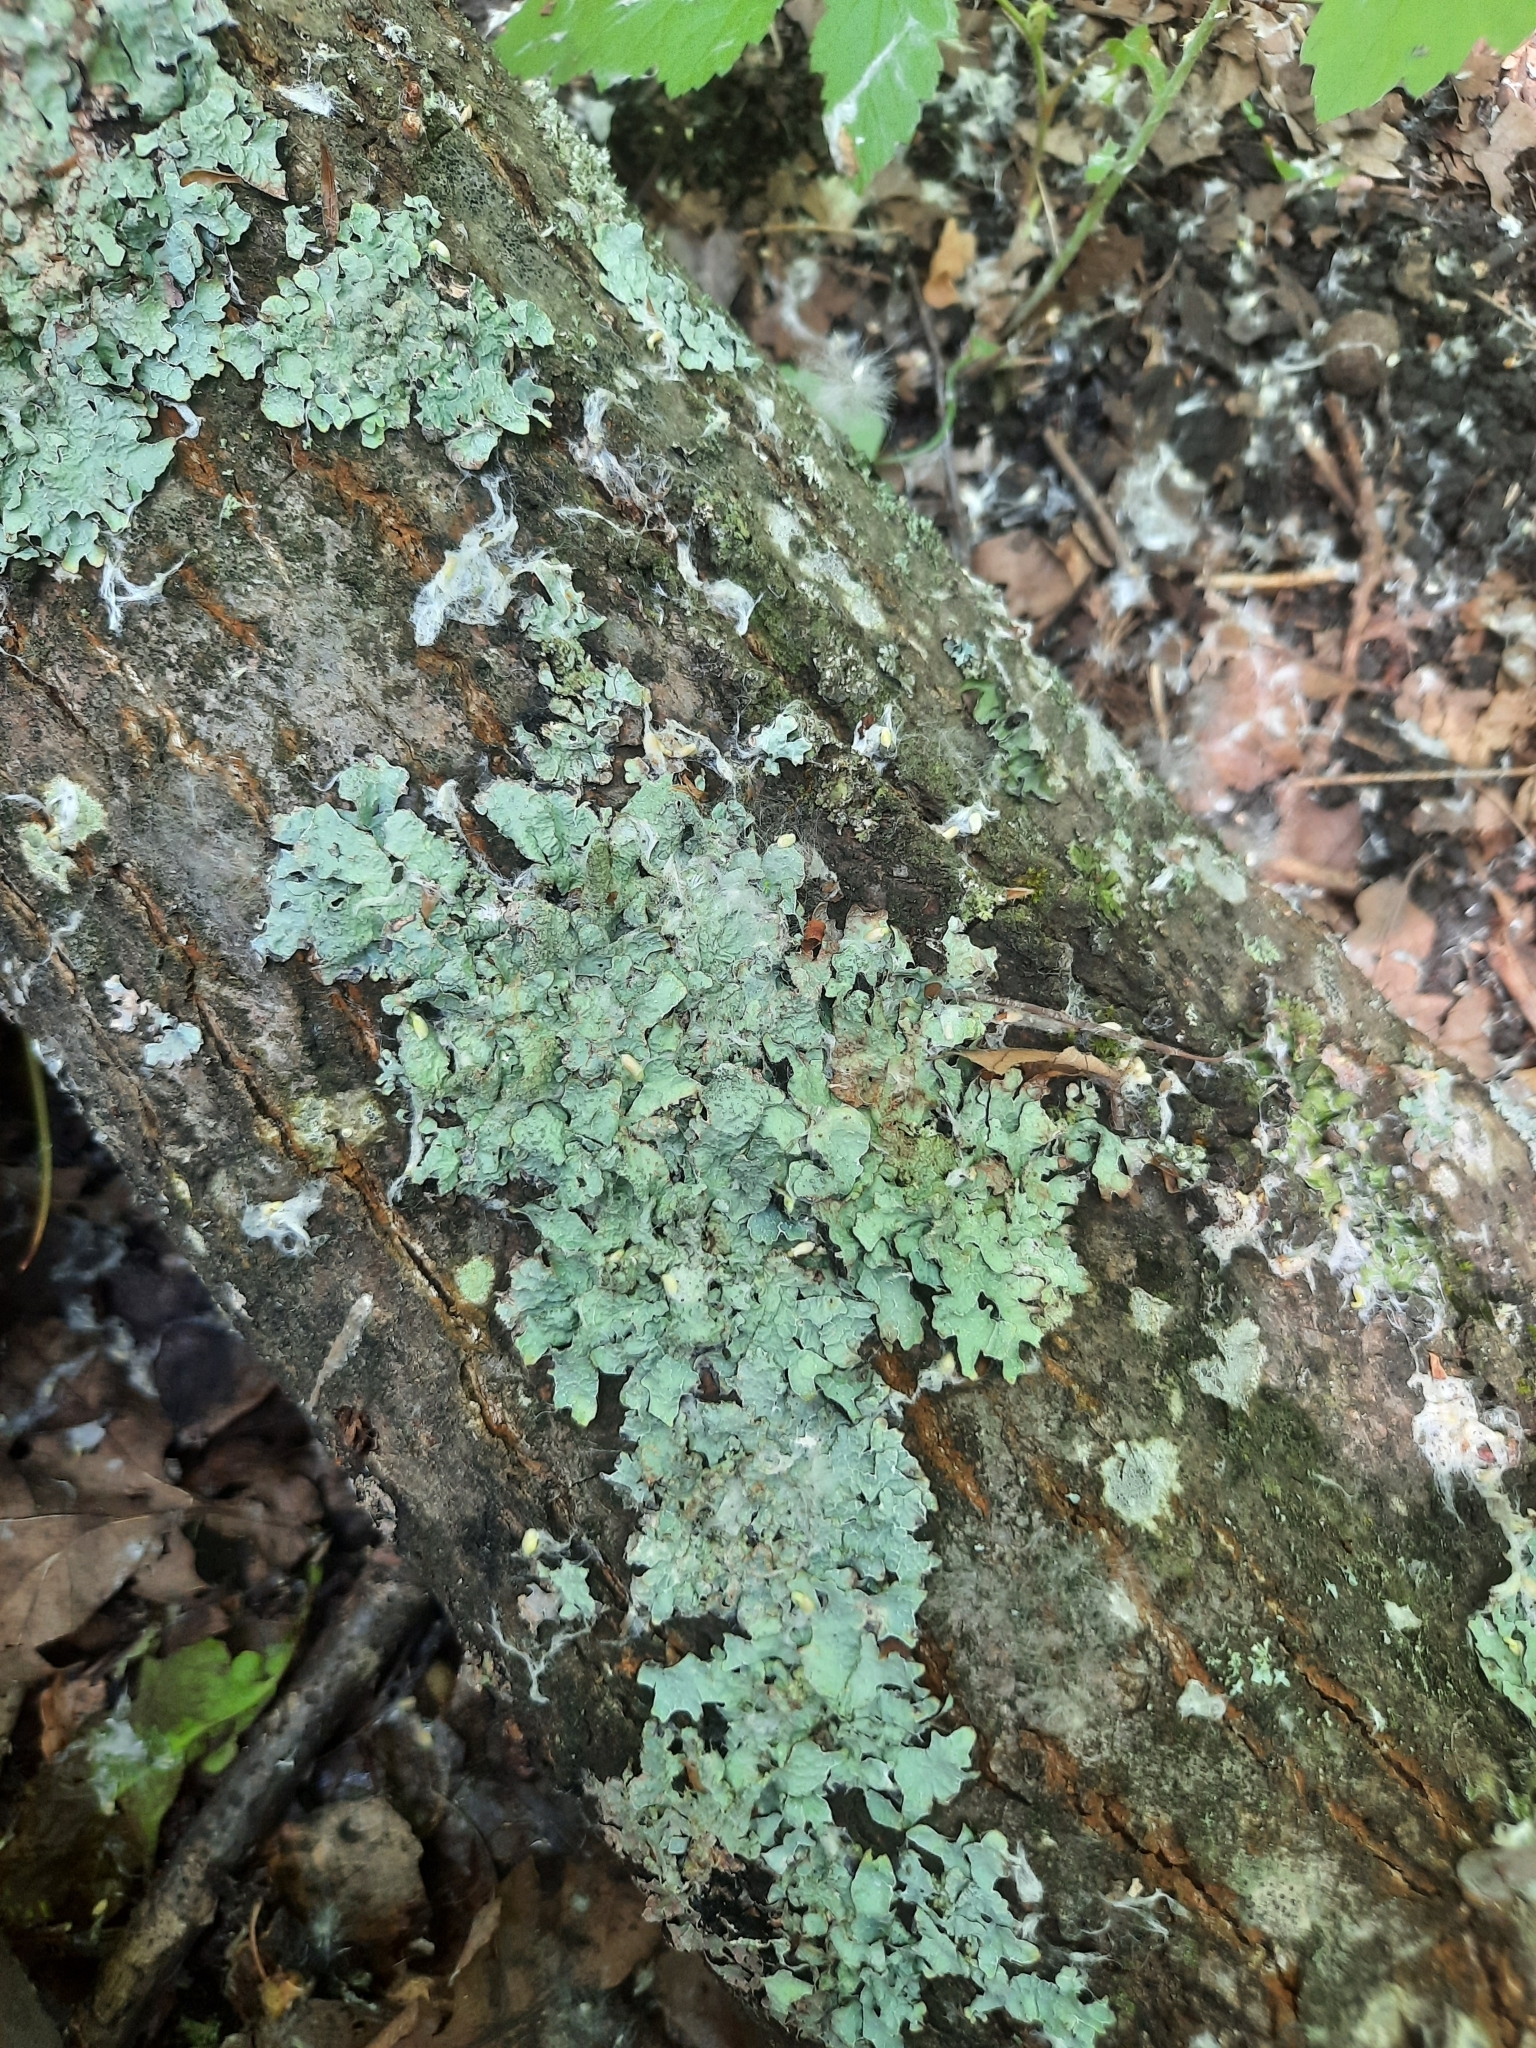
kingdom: Fungi
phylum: Ascomycota
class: Lecanoromycetes
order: Lecanorales
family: Parmeliaceae
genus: Parmelia
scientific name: Parmelia sulcata
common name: Netted shield lichen
